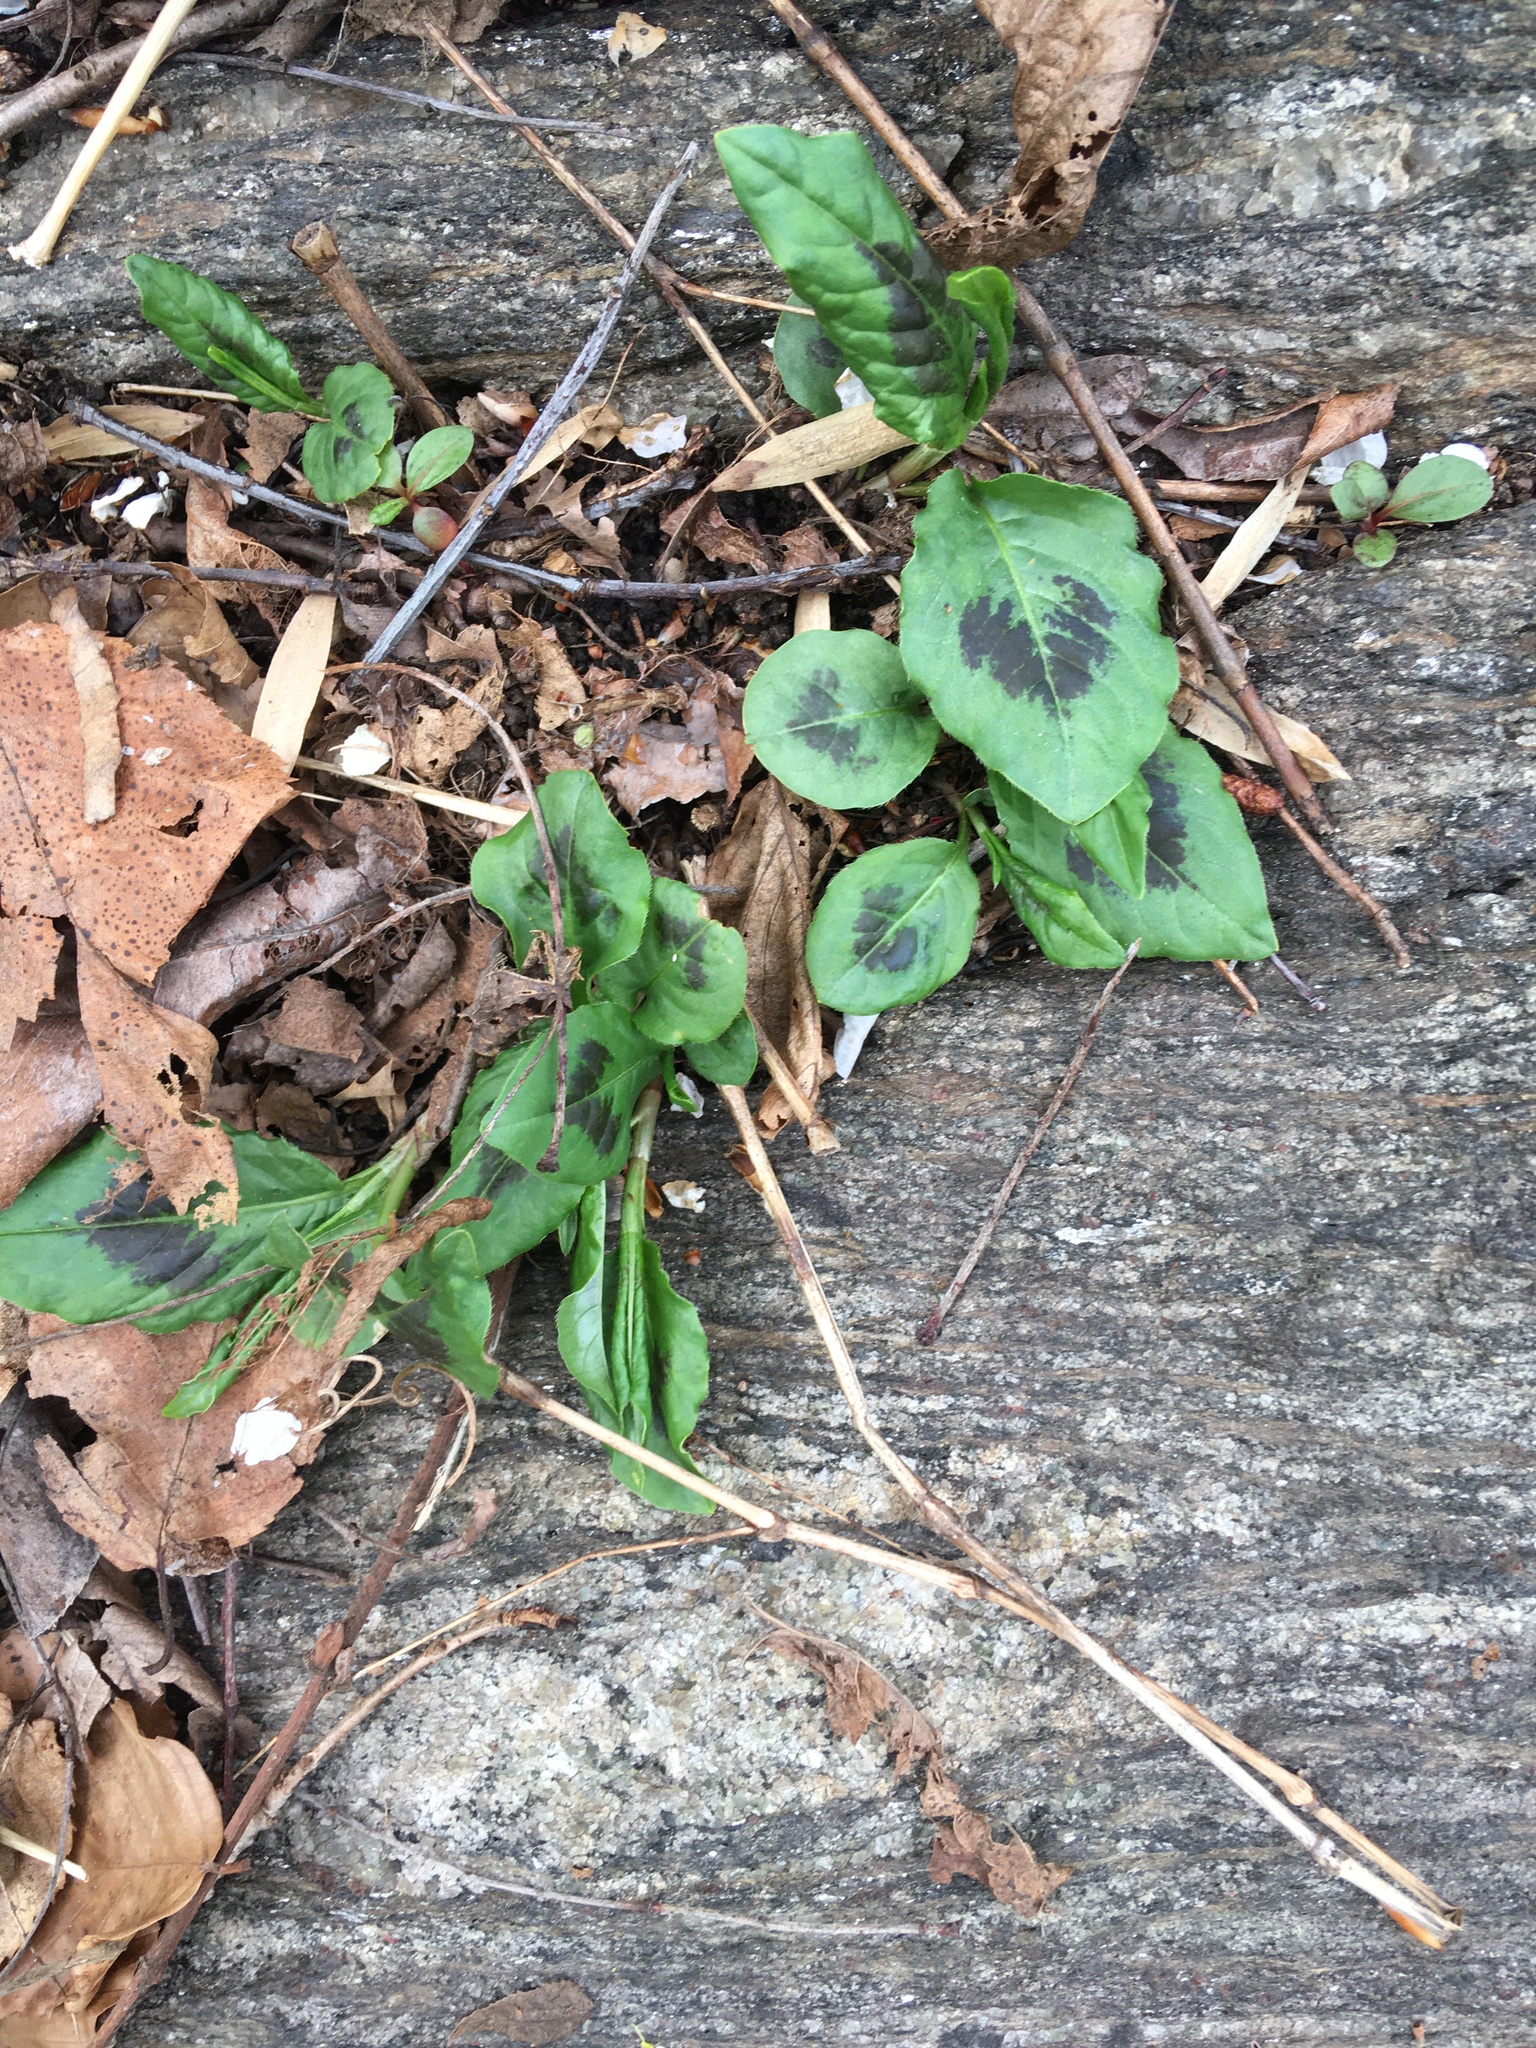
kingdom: Plantae
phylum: Tracheophyta
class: Magnoliopsida
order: Caryophyllales
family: Polygonaceae
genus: Persicaria
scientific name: Persicaria virginiana
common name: Jumpseed
